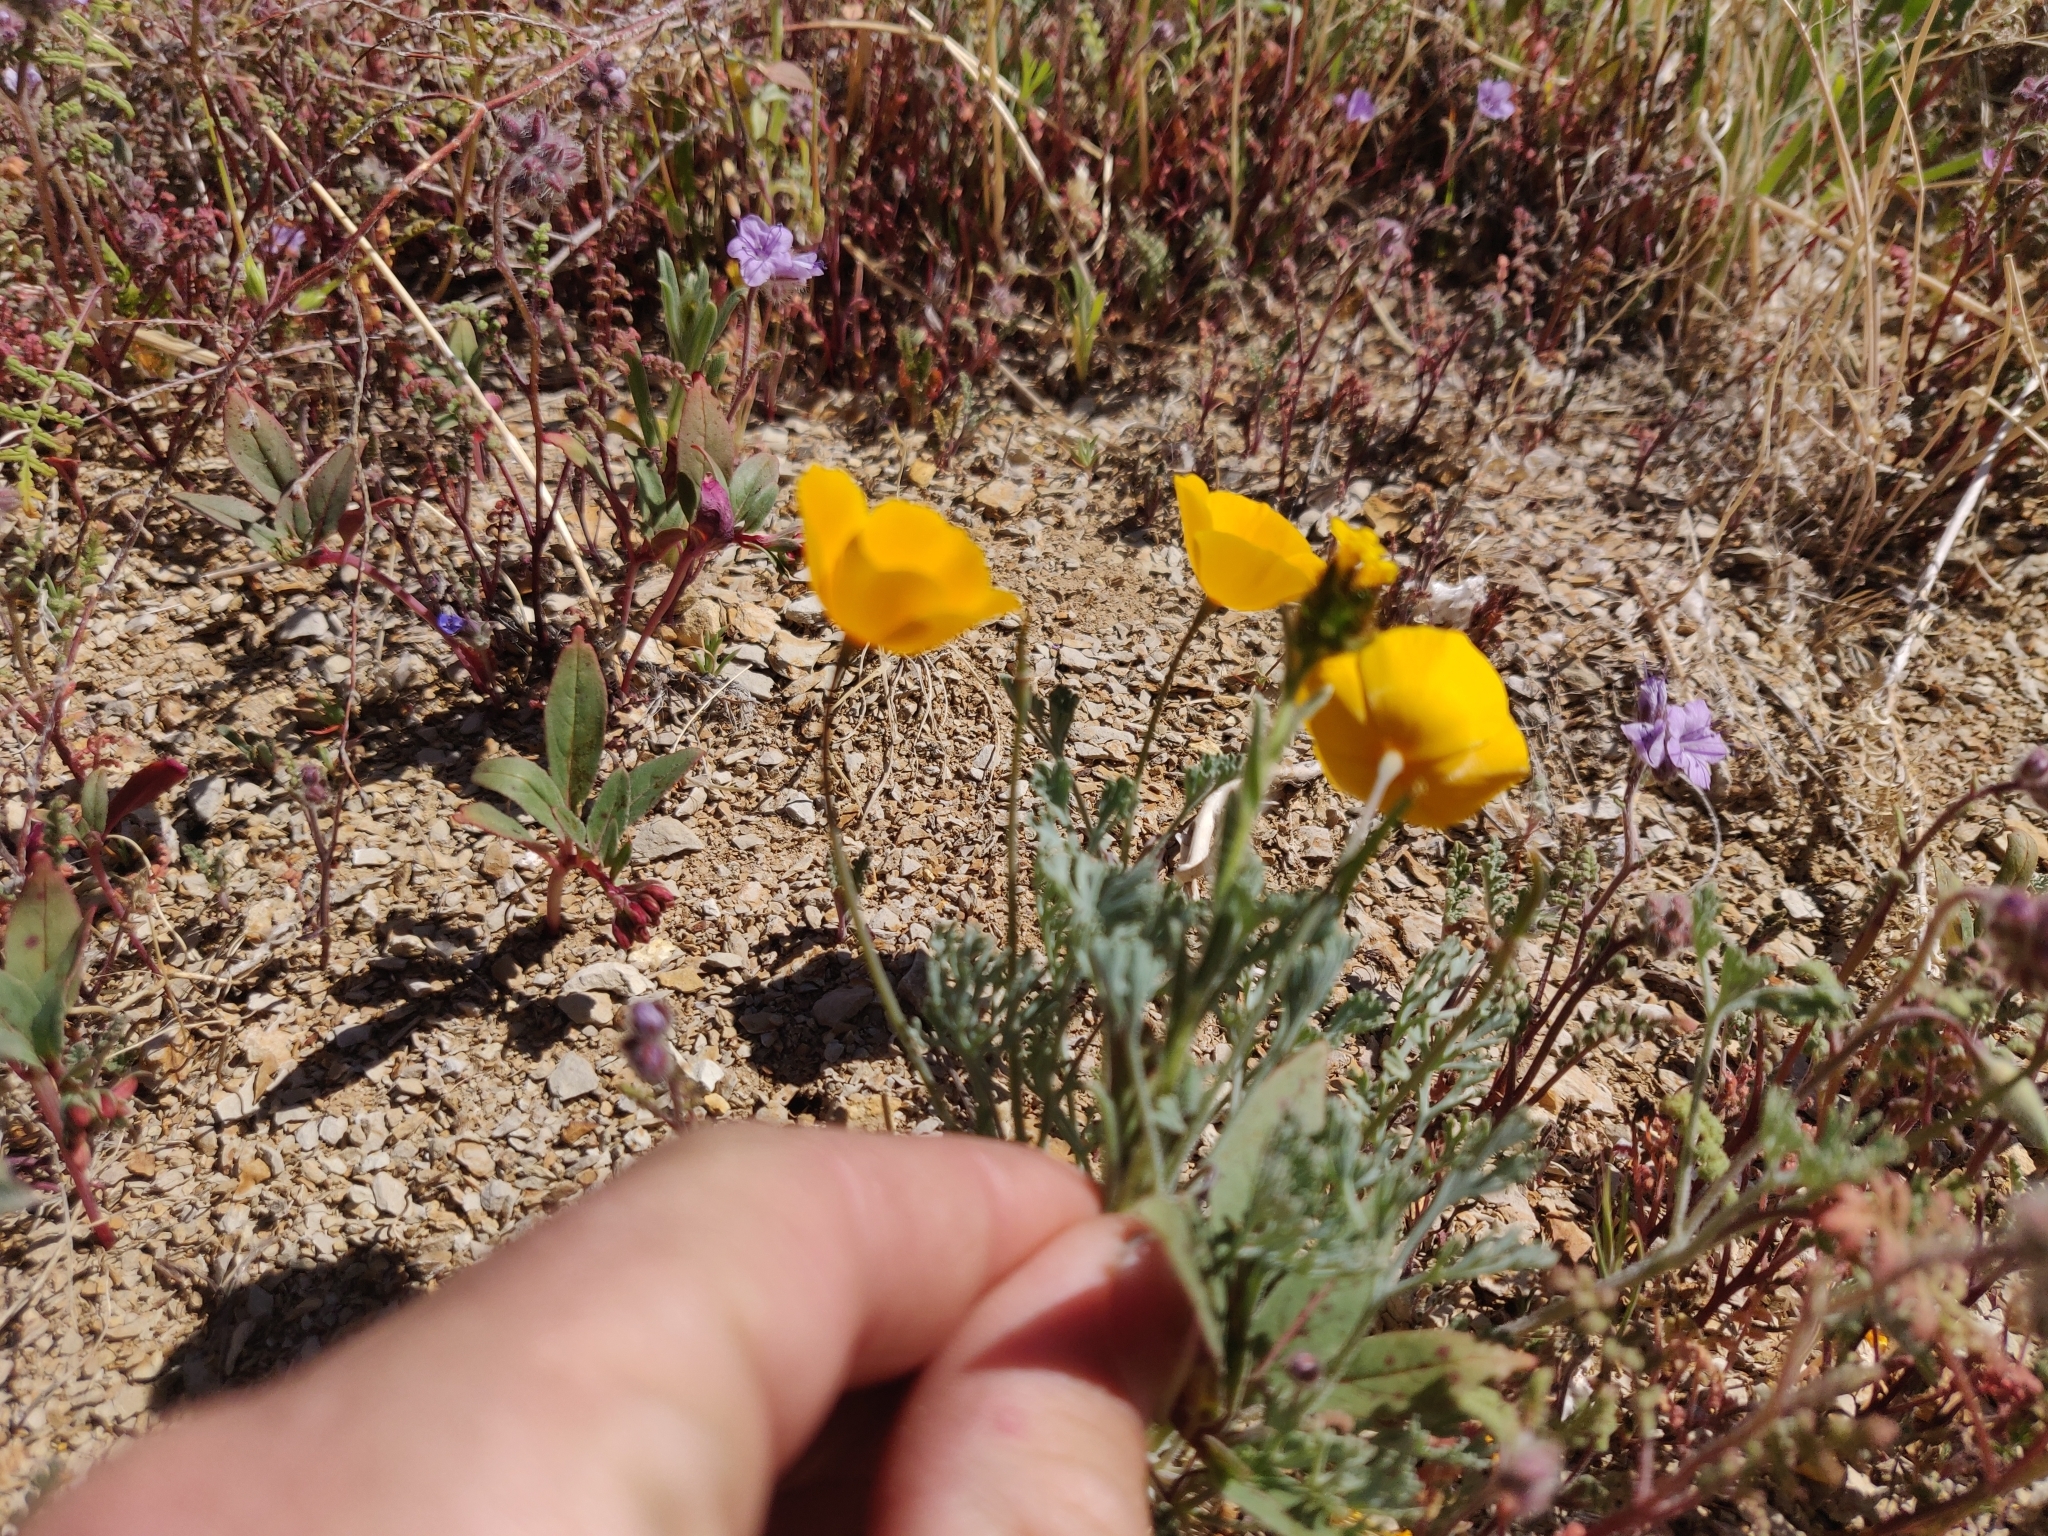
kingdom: Plantae
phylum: Tracheophyta
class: Magnoliopsida
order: Ranunculales
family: Papaveraceae
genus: Eschscholzia
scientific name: Eschscholzia hypecoides
